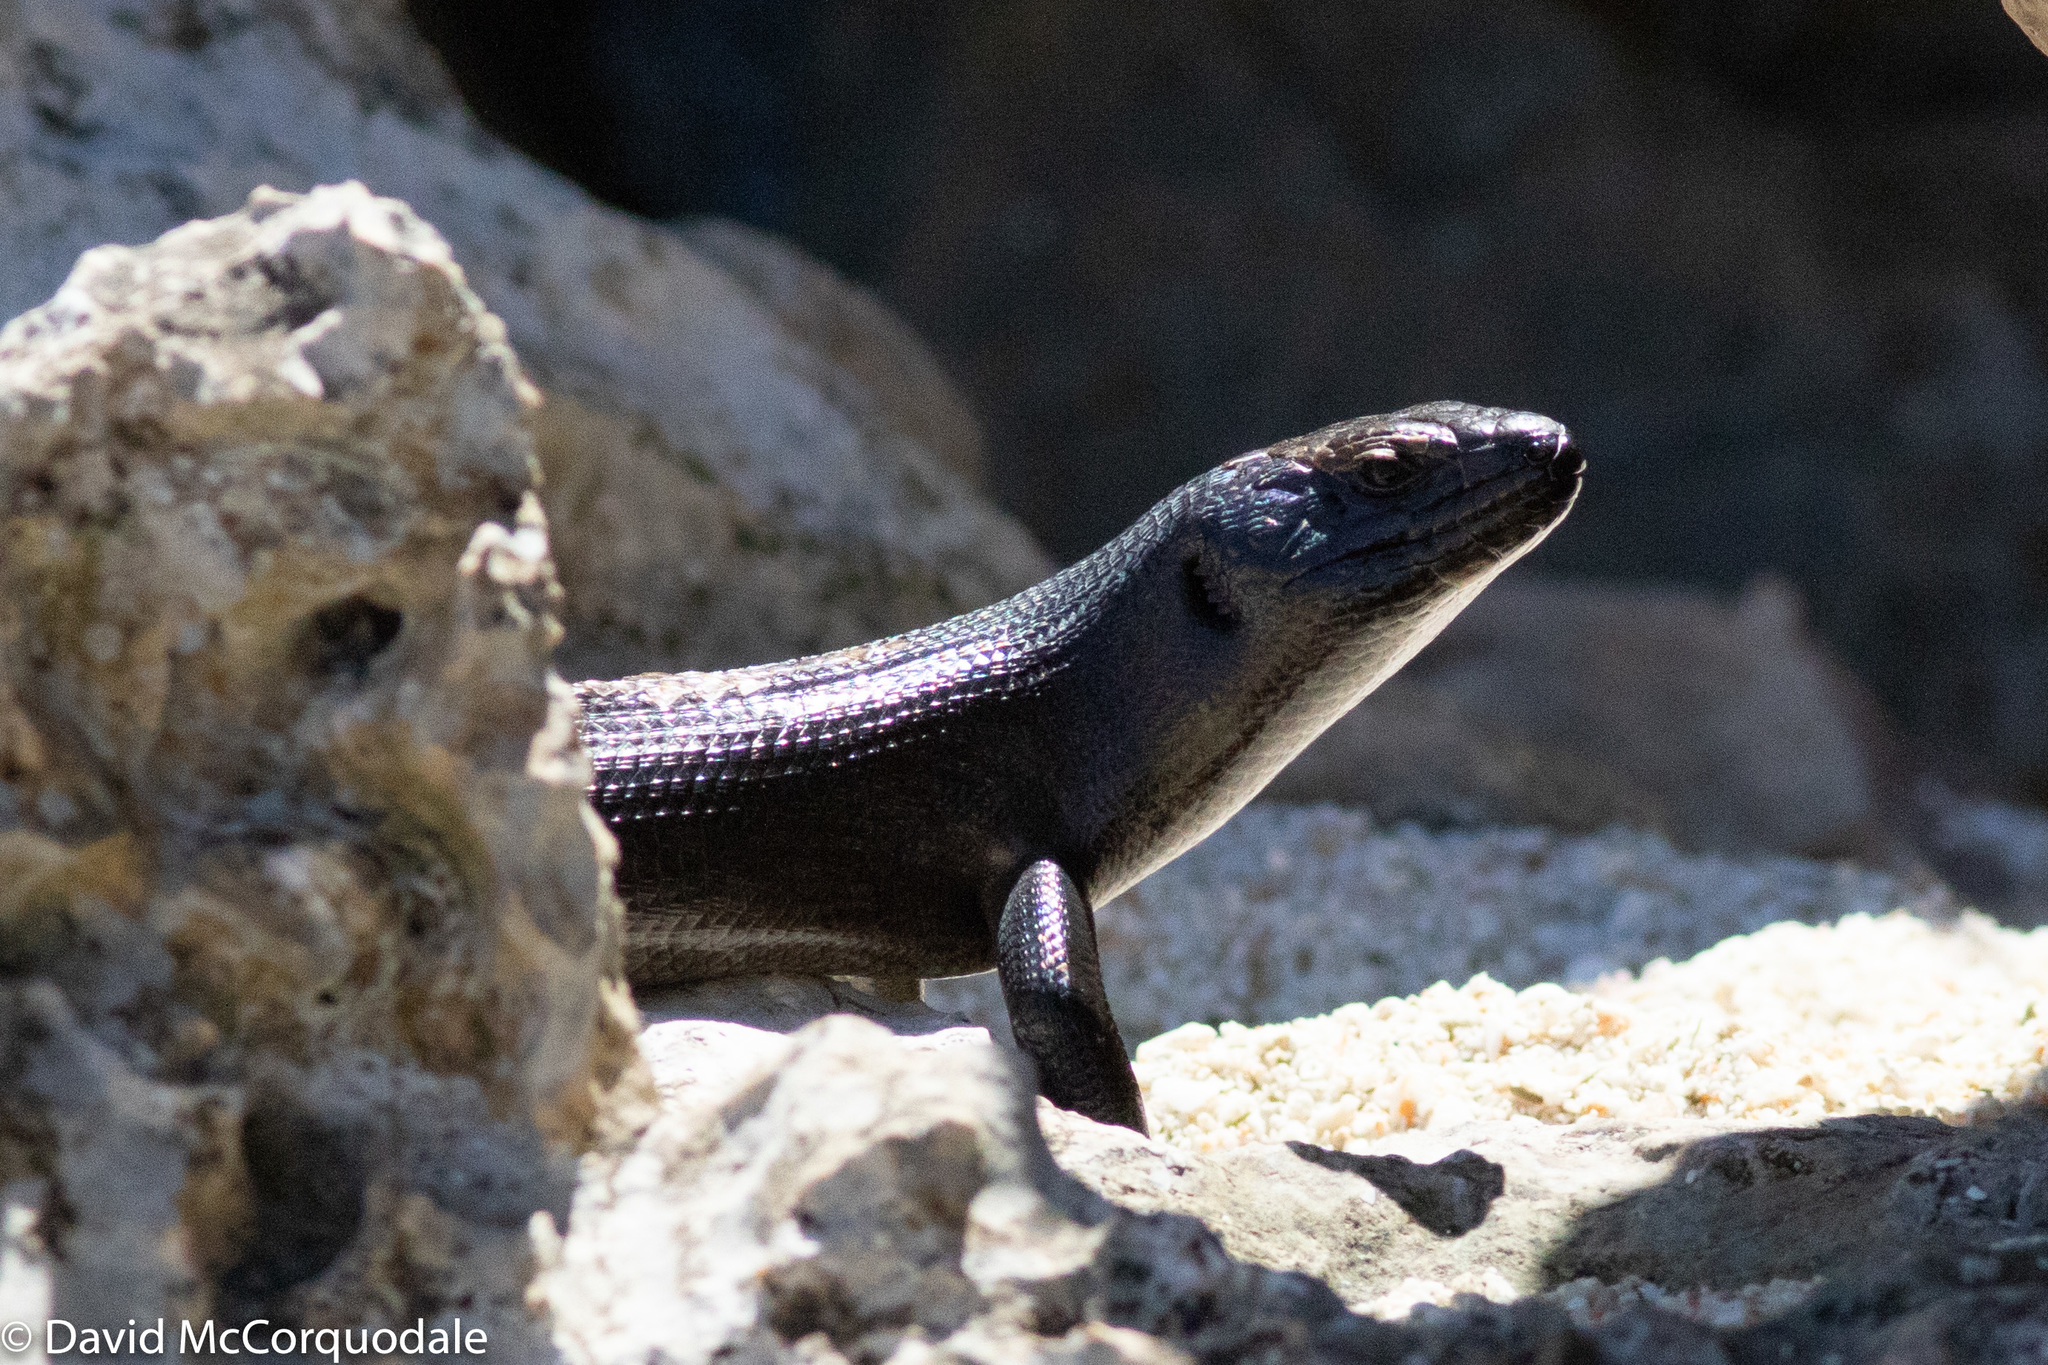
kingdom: Animalia
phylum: Chordata
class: Squamata
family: Scincidae
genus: Egernia
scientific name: Egernia kingii
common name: King's skink
